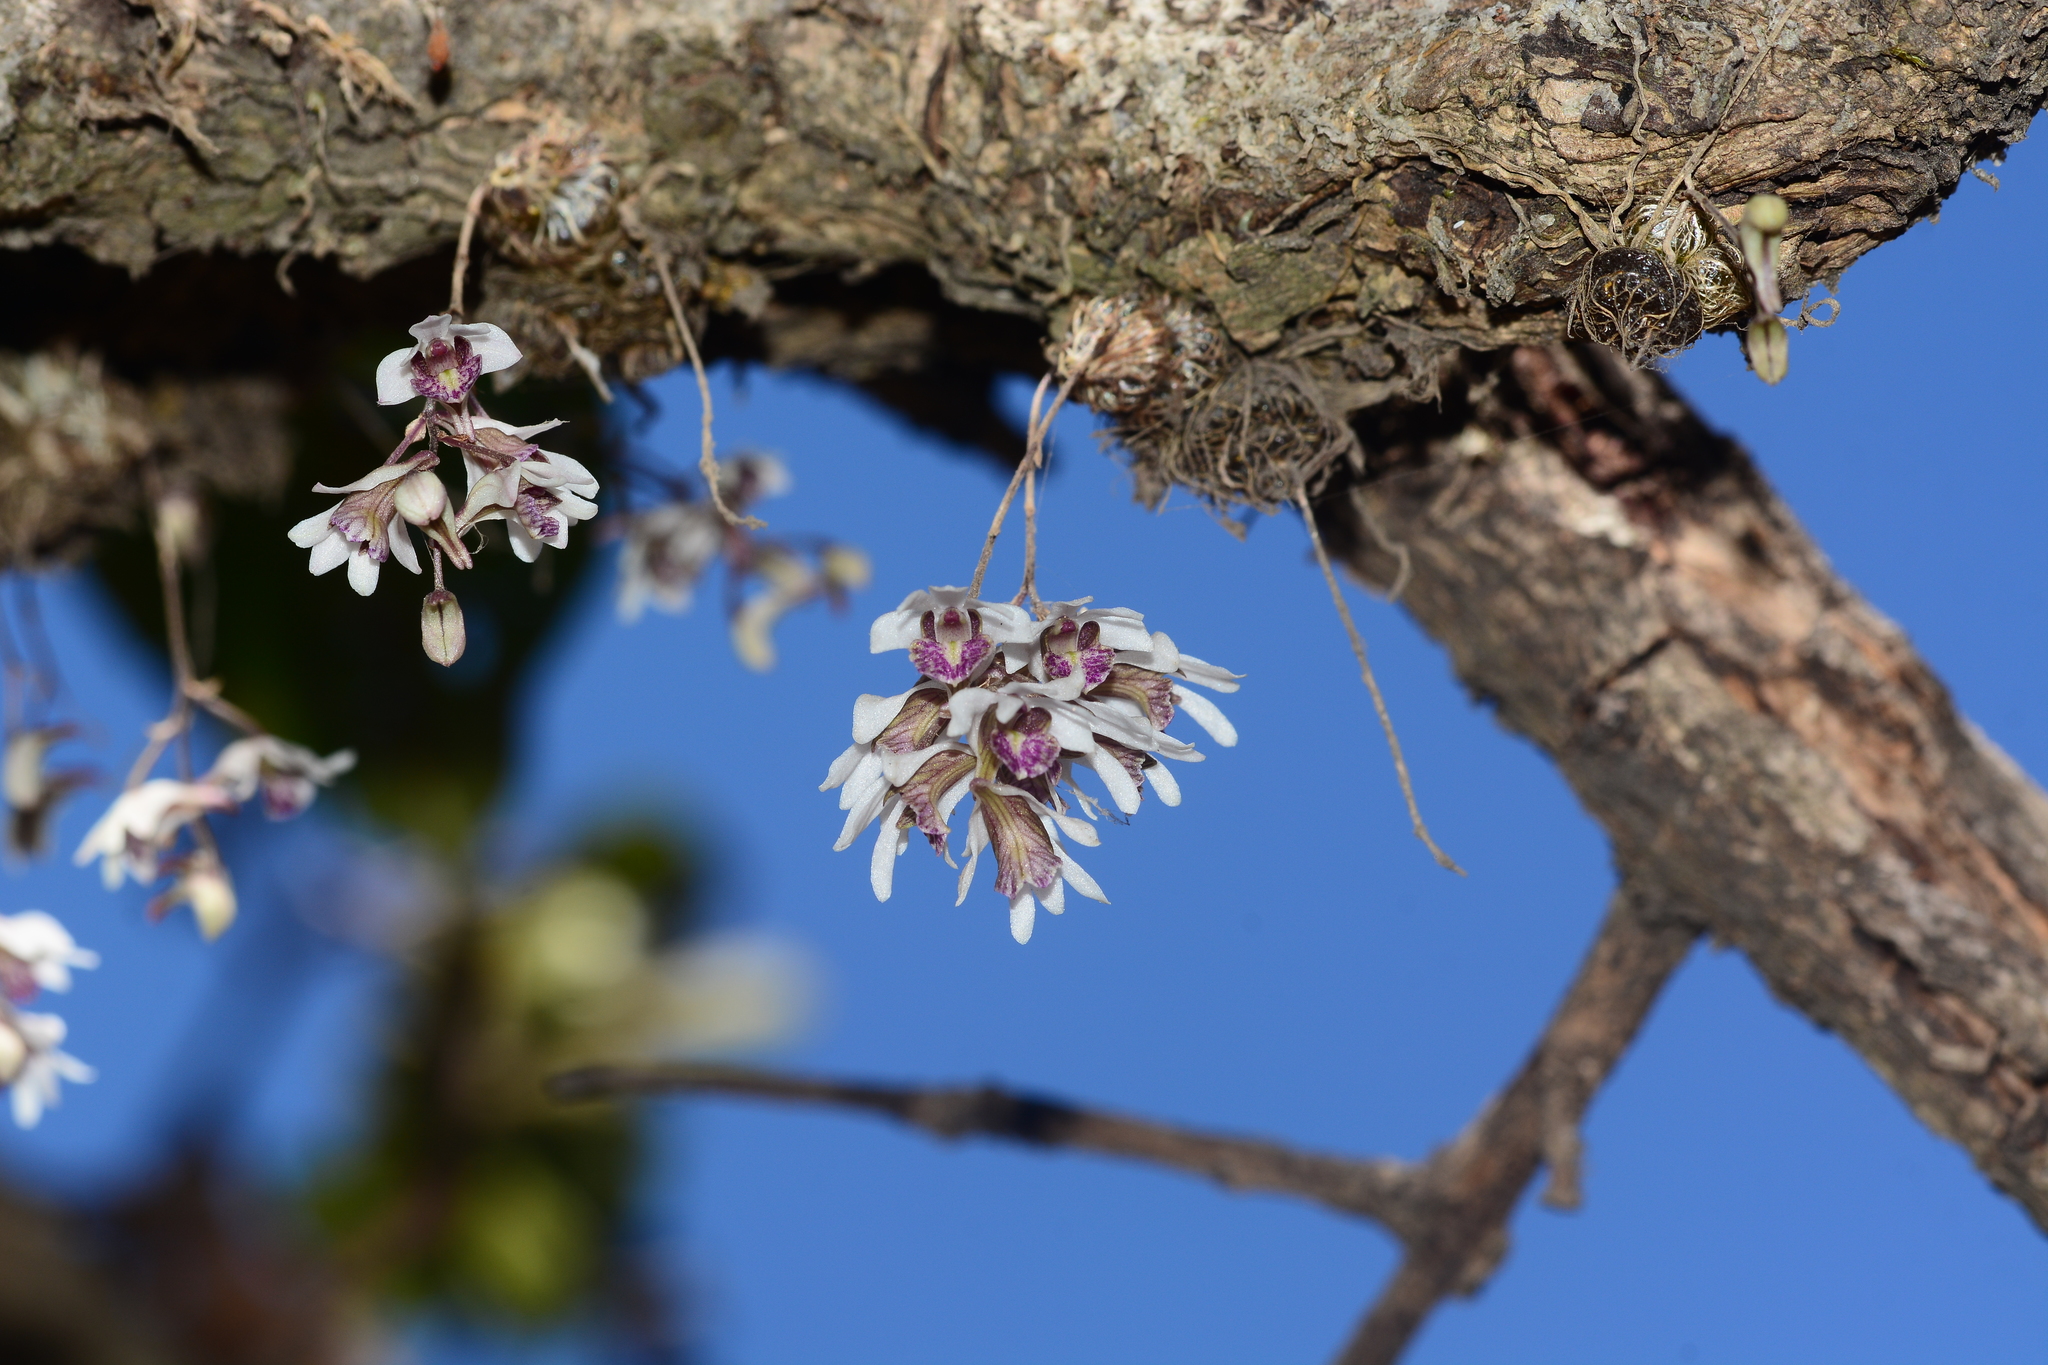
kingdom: Plantae
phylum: Tracheophyta
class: Liliopsida
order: Asparagales
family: Orchidaceae
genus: Dendrobium
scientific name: Dendrobium turbinatum
